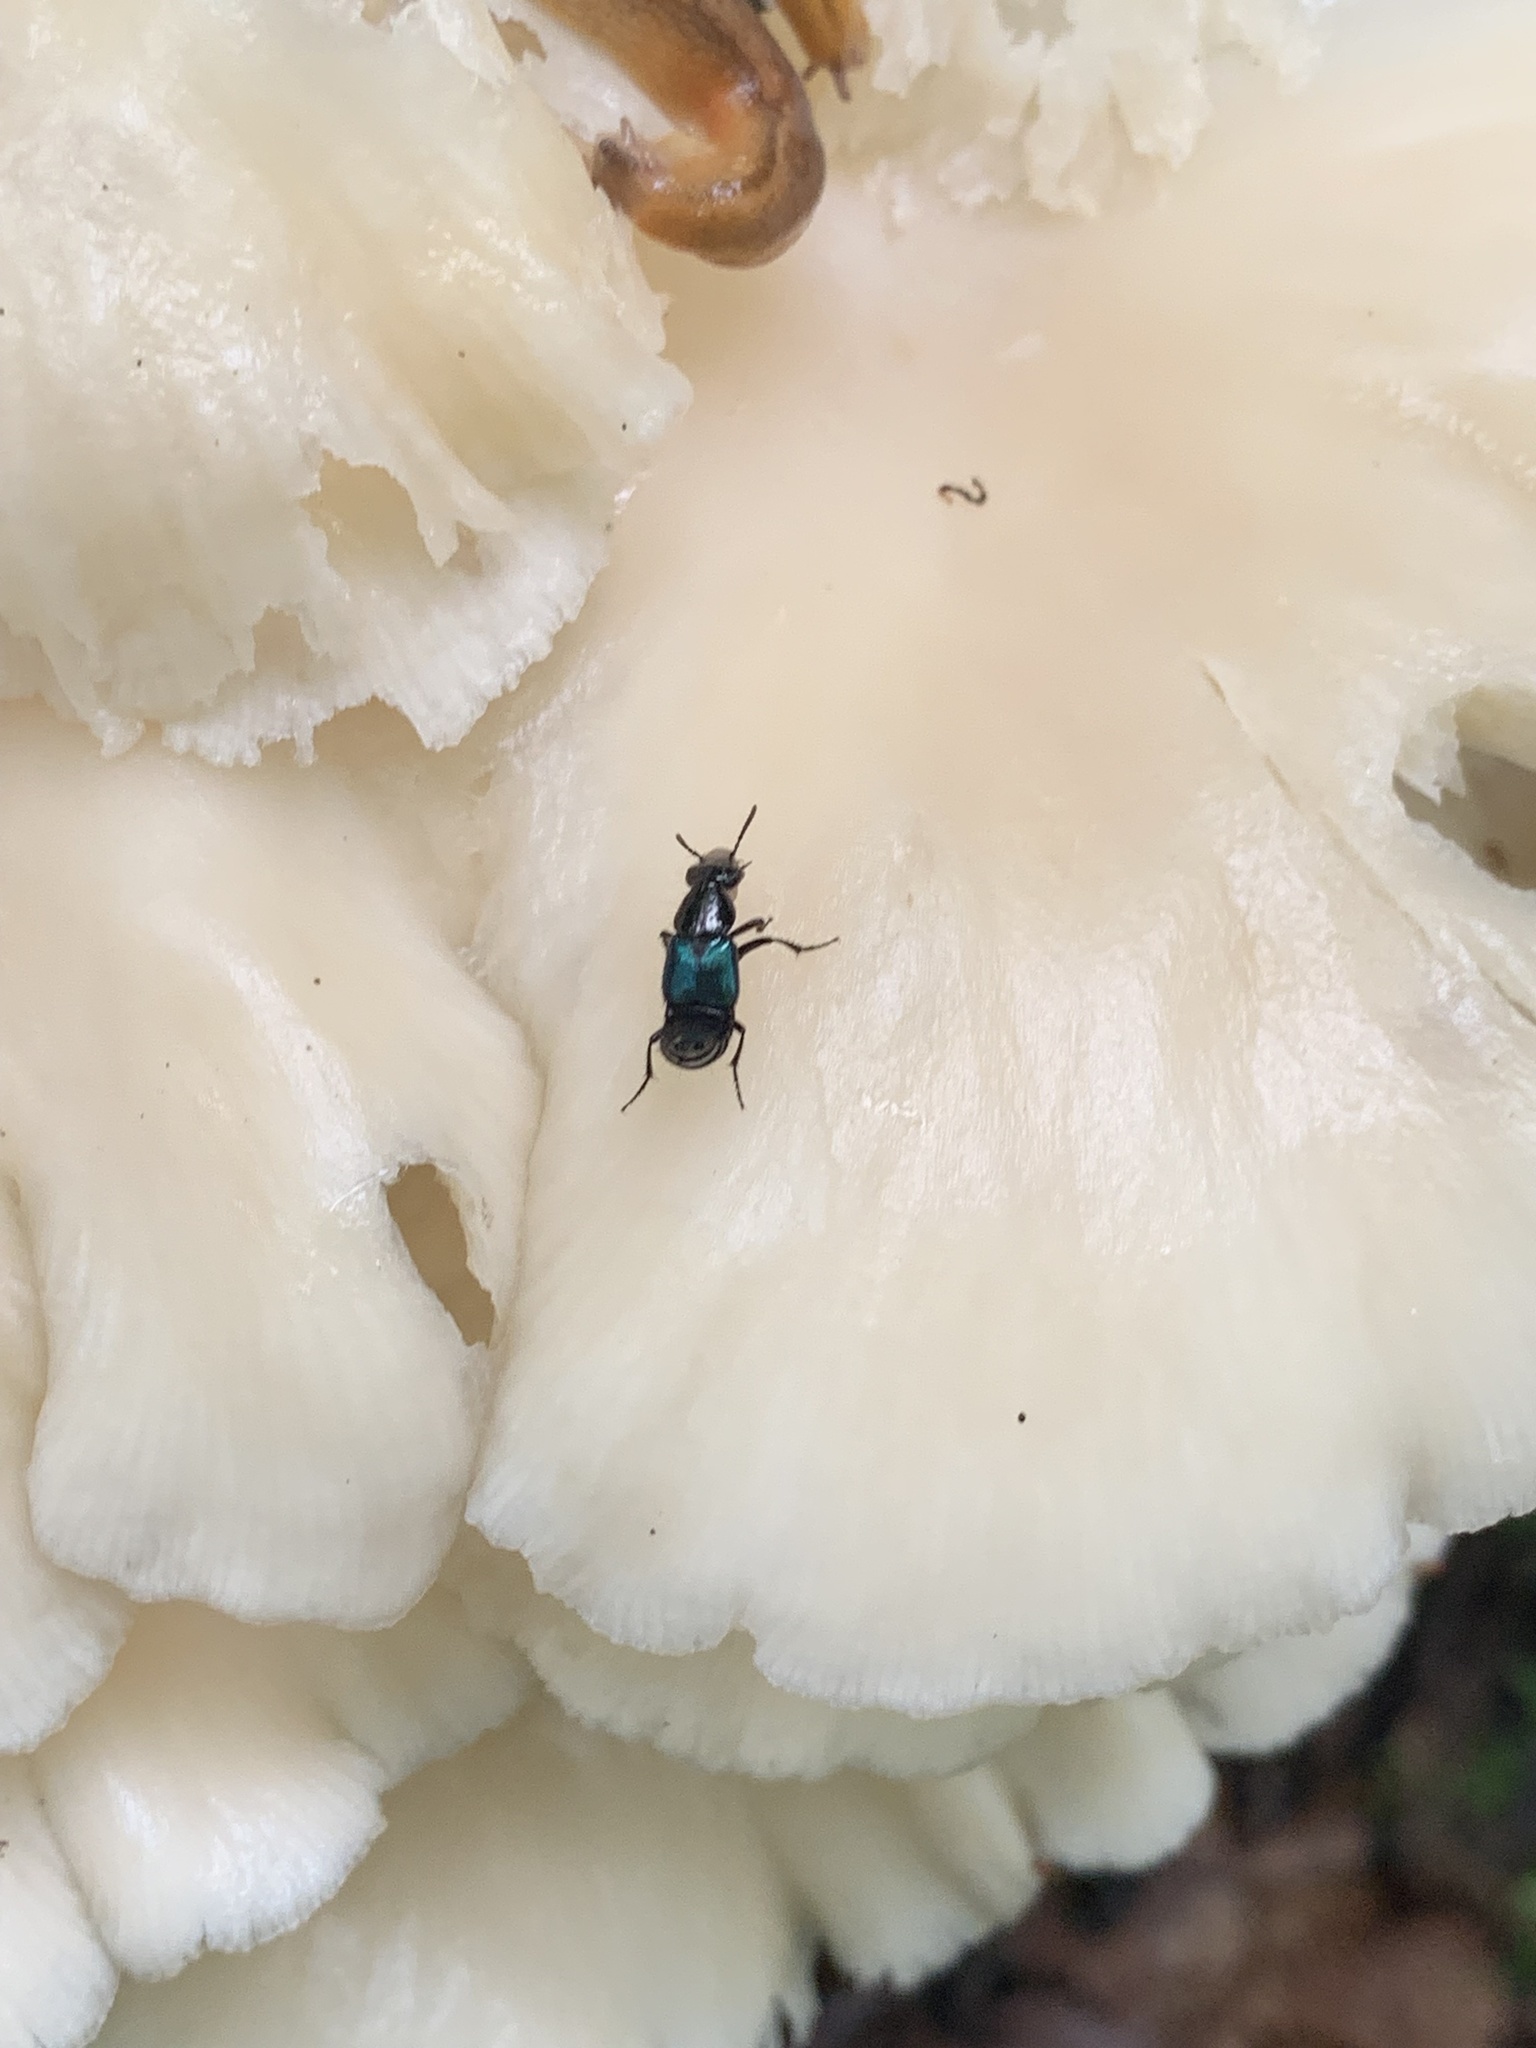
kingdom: Animalia
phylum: Arthropoda
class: Insecta
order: Coleoptera
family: Staphylinidae
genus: Philonthus
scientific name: Philonthus caeruleipennis
